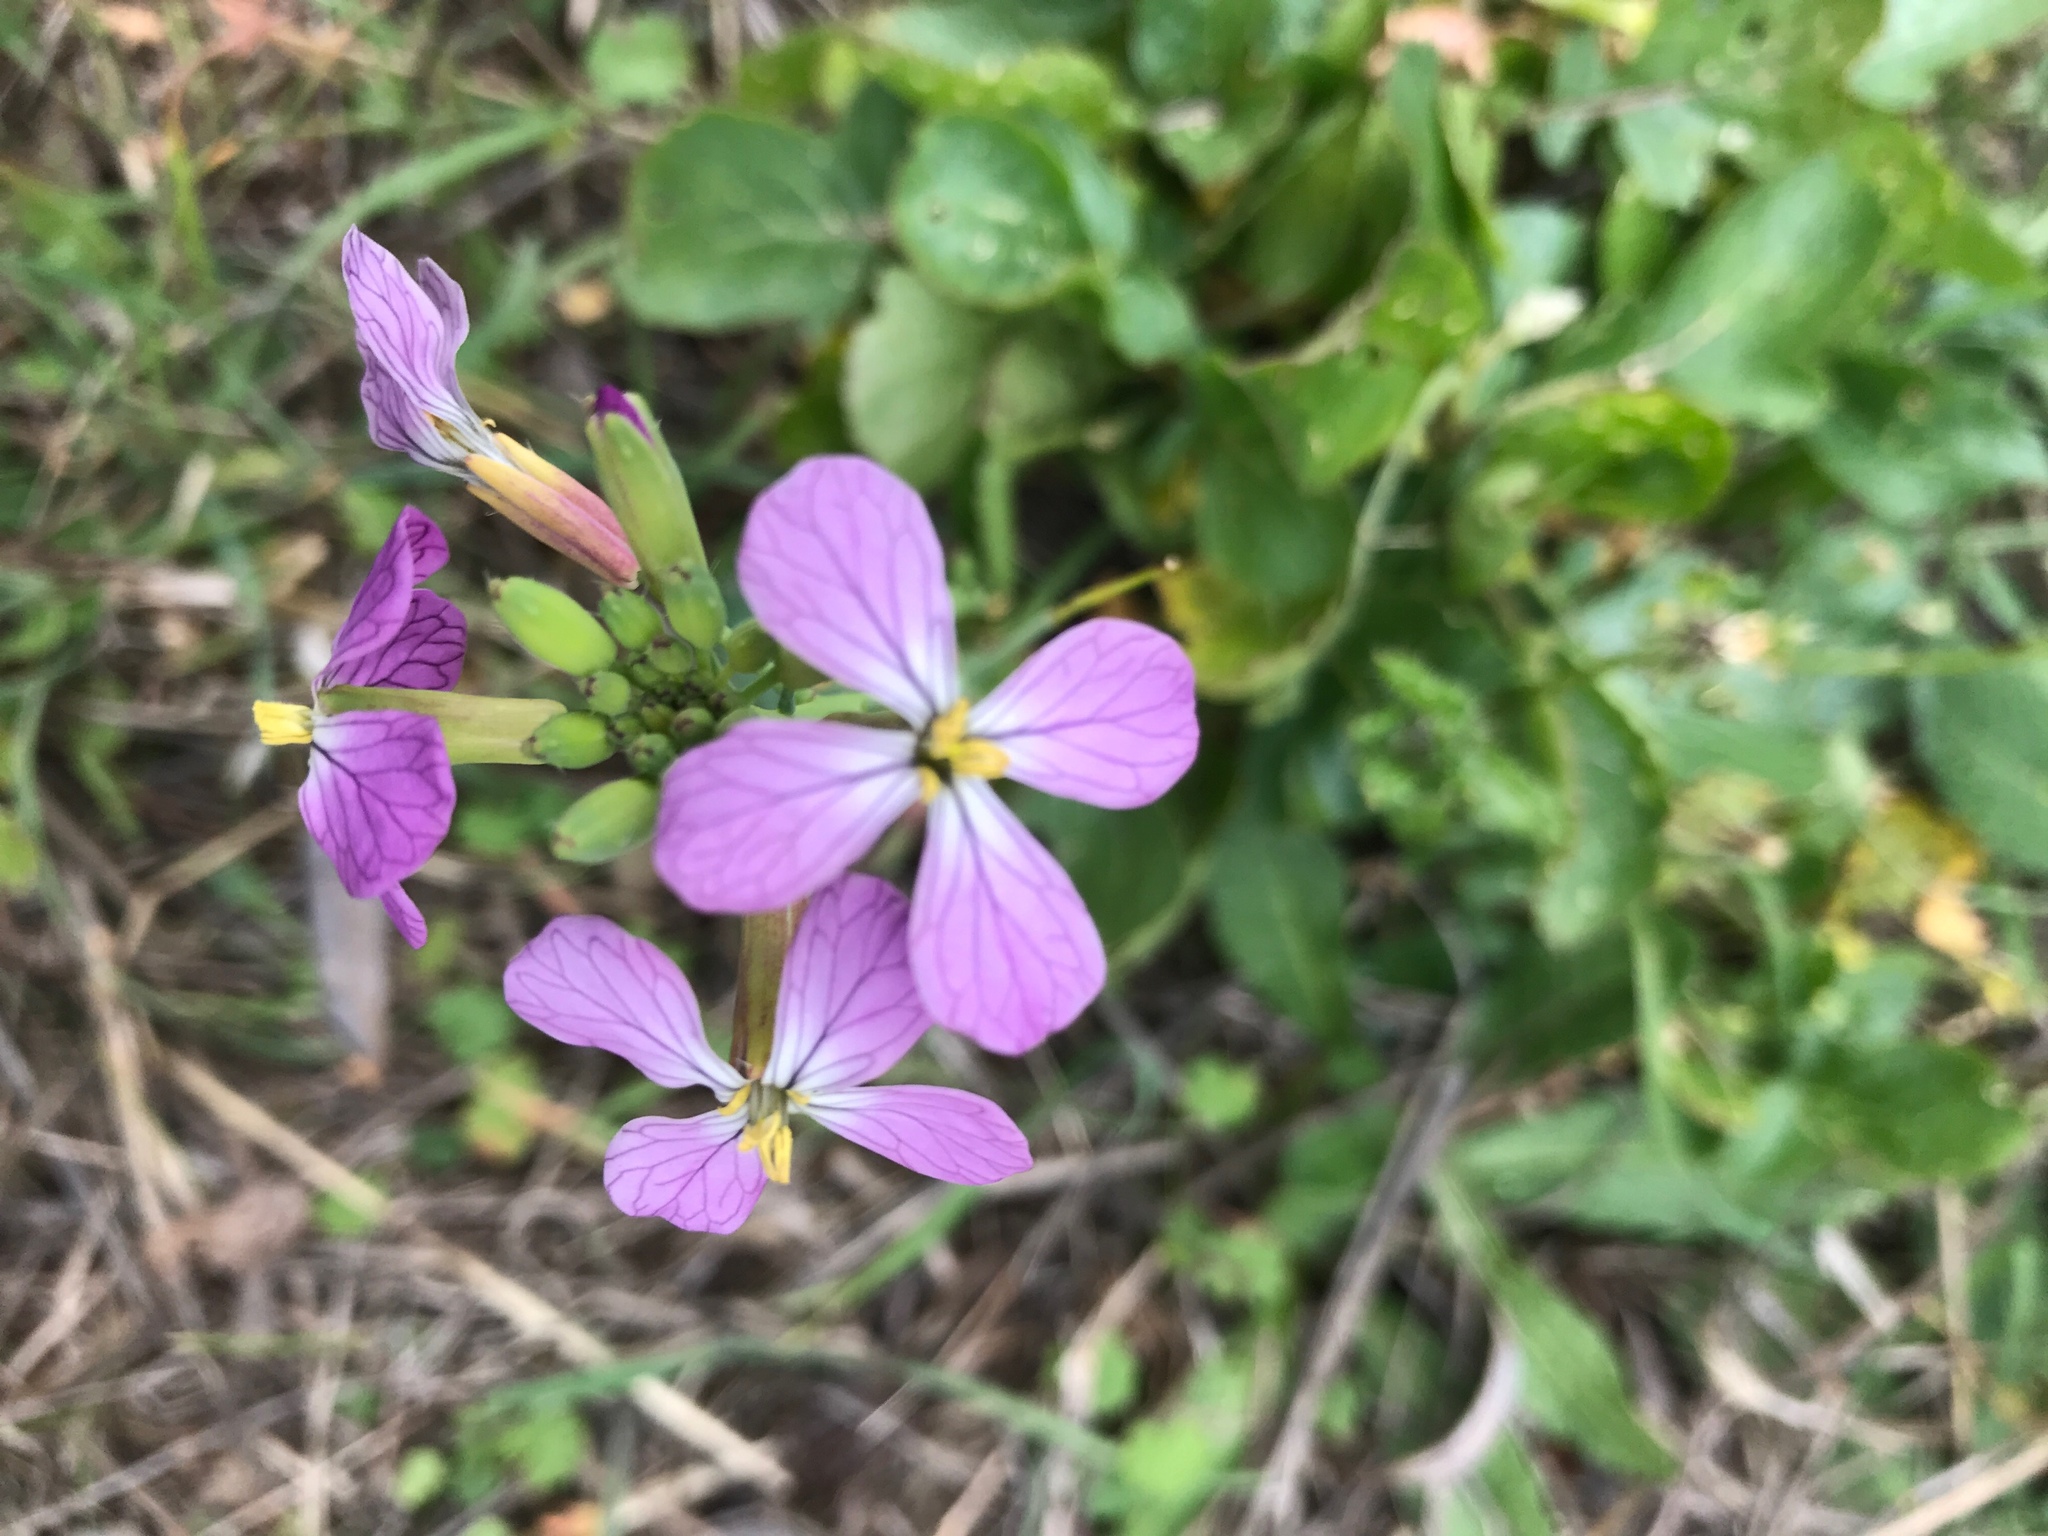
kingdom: Plantae
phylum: Tracheophyta
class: Magnoliopsida
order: Brassicales
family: Brassicaceae
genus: Raphanus
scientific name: Raphanus sativus
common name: Cultivated radish
